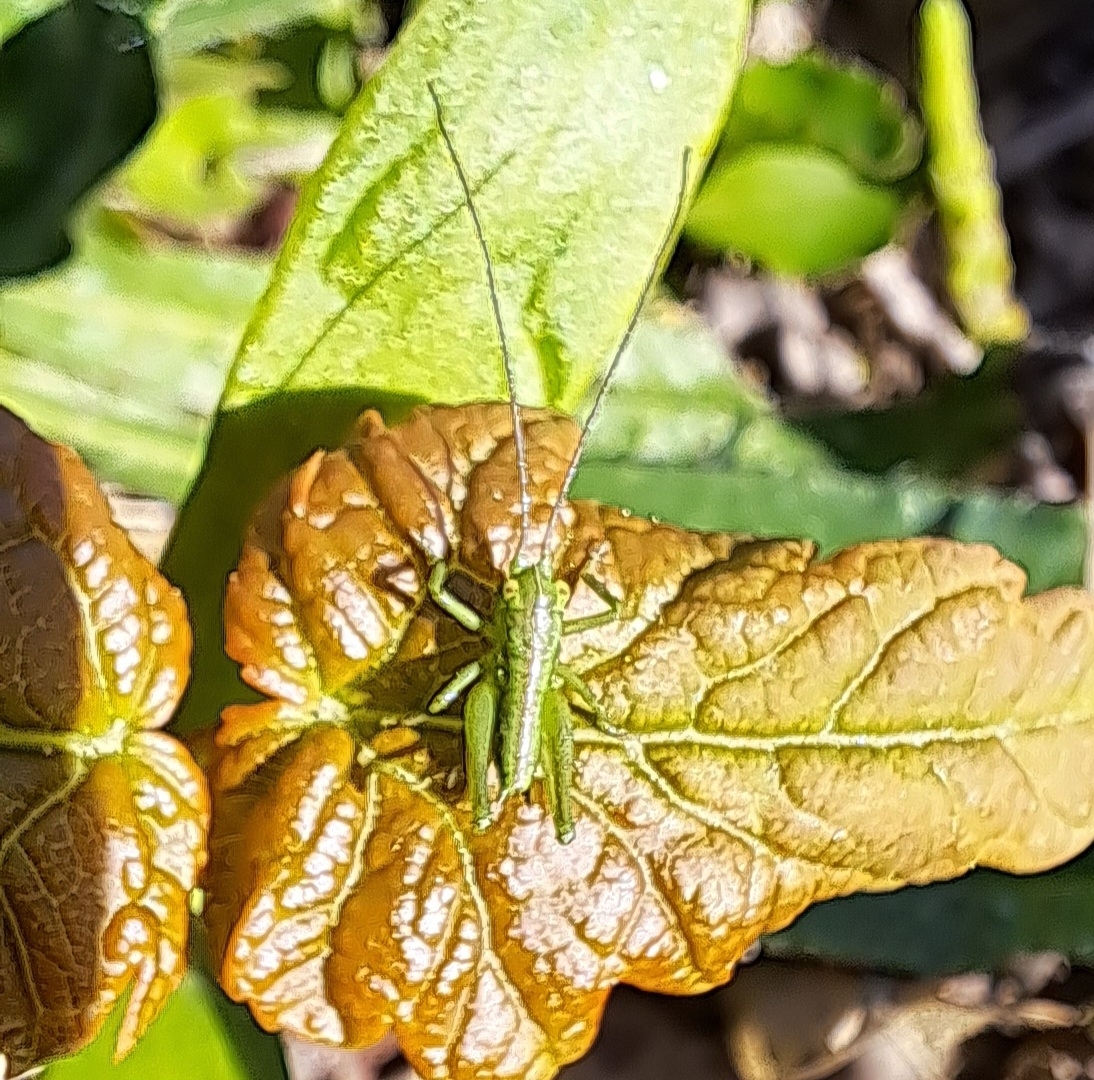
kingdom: Animalia
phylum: Arthropoda
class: Insecta
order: Orthoptera
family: Tettigoniidae
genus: Tettigonia
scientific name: Tettigonia viridissima
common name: Great green bush-cricket
